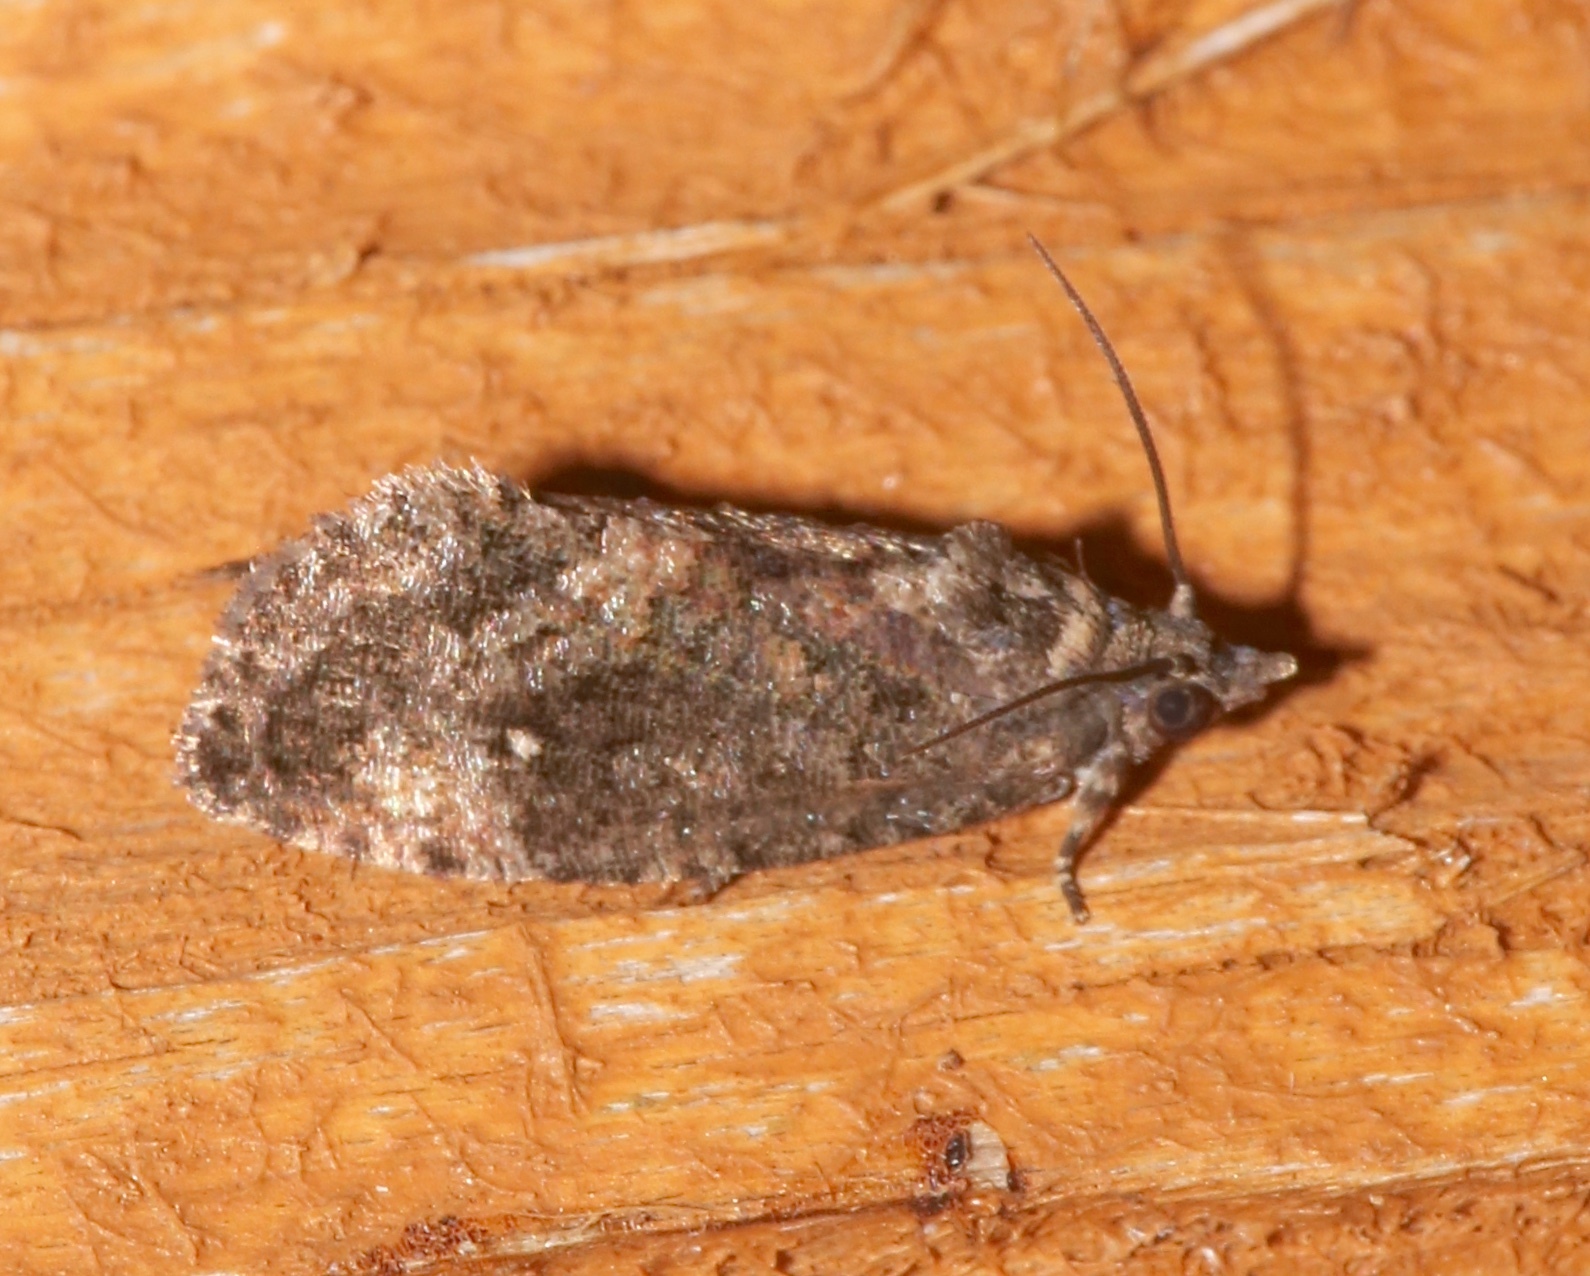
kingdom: Animalia
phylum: Arthropoda
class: Insecta
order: Lepidoptera
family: Tortricidae
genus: Gymnandrosoma
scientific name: Gymnandrosoma punctidiscanum
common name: Dotted ecdytolopha moth
